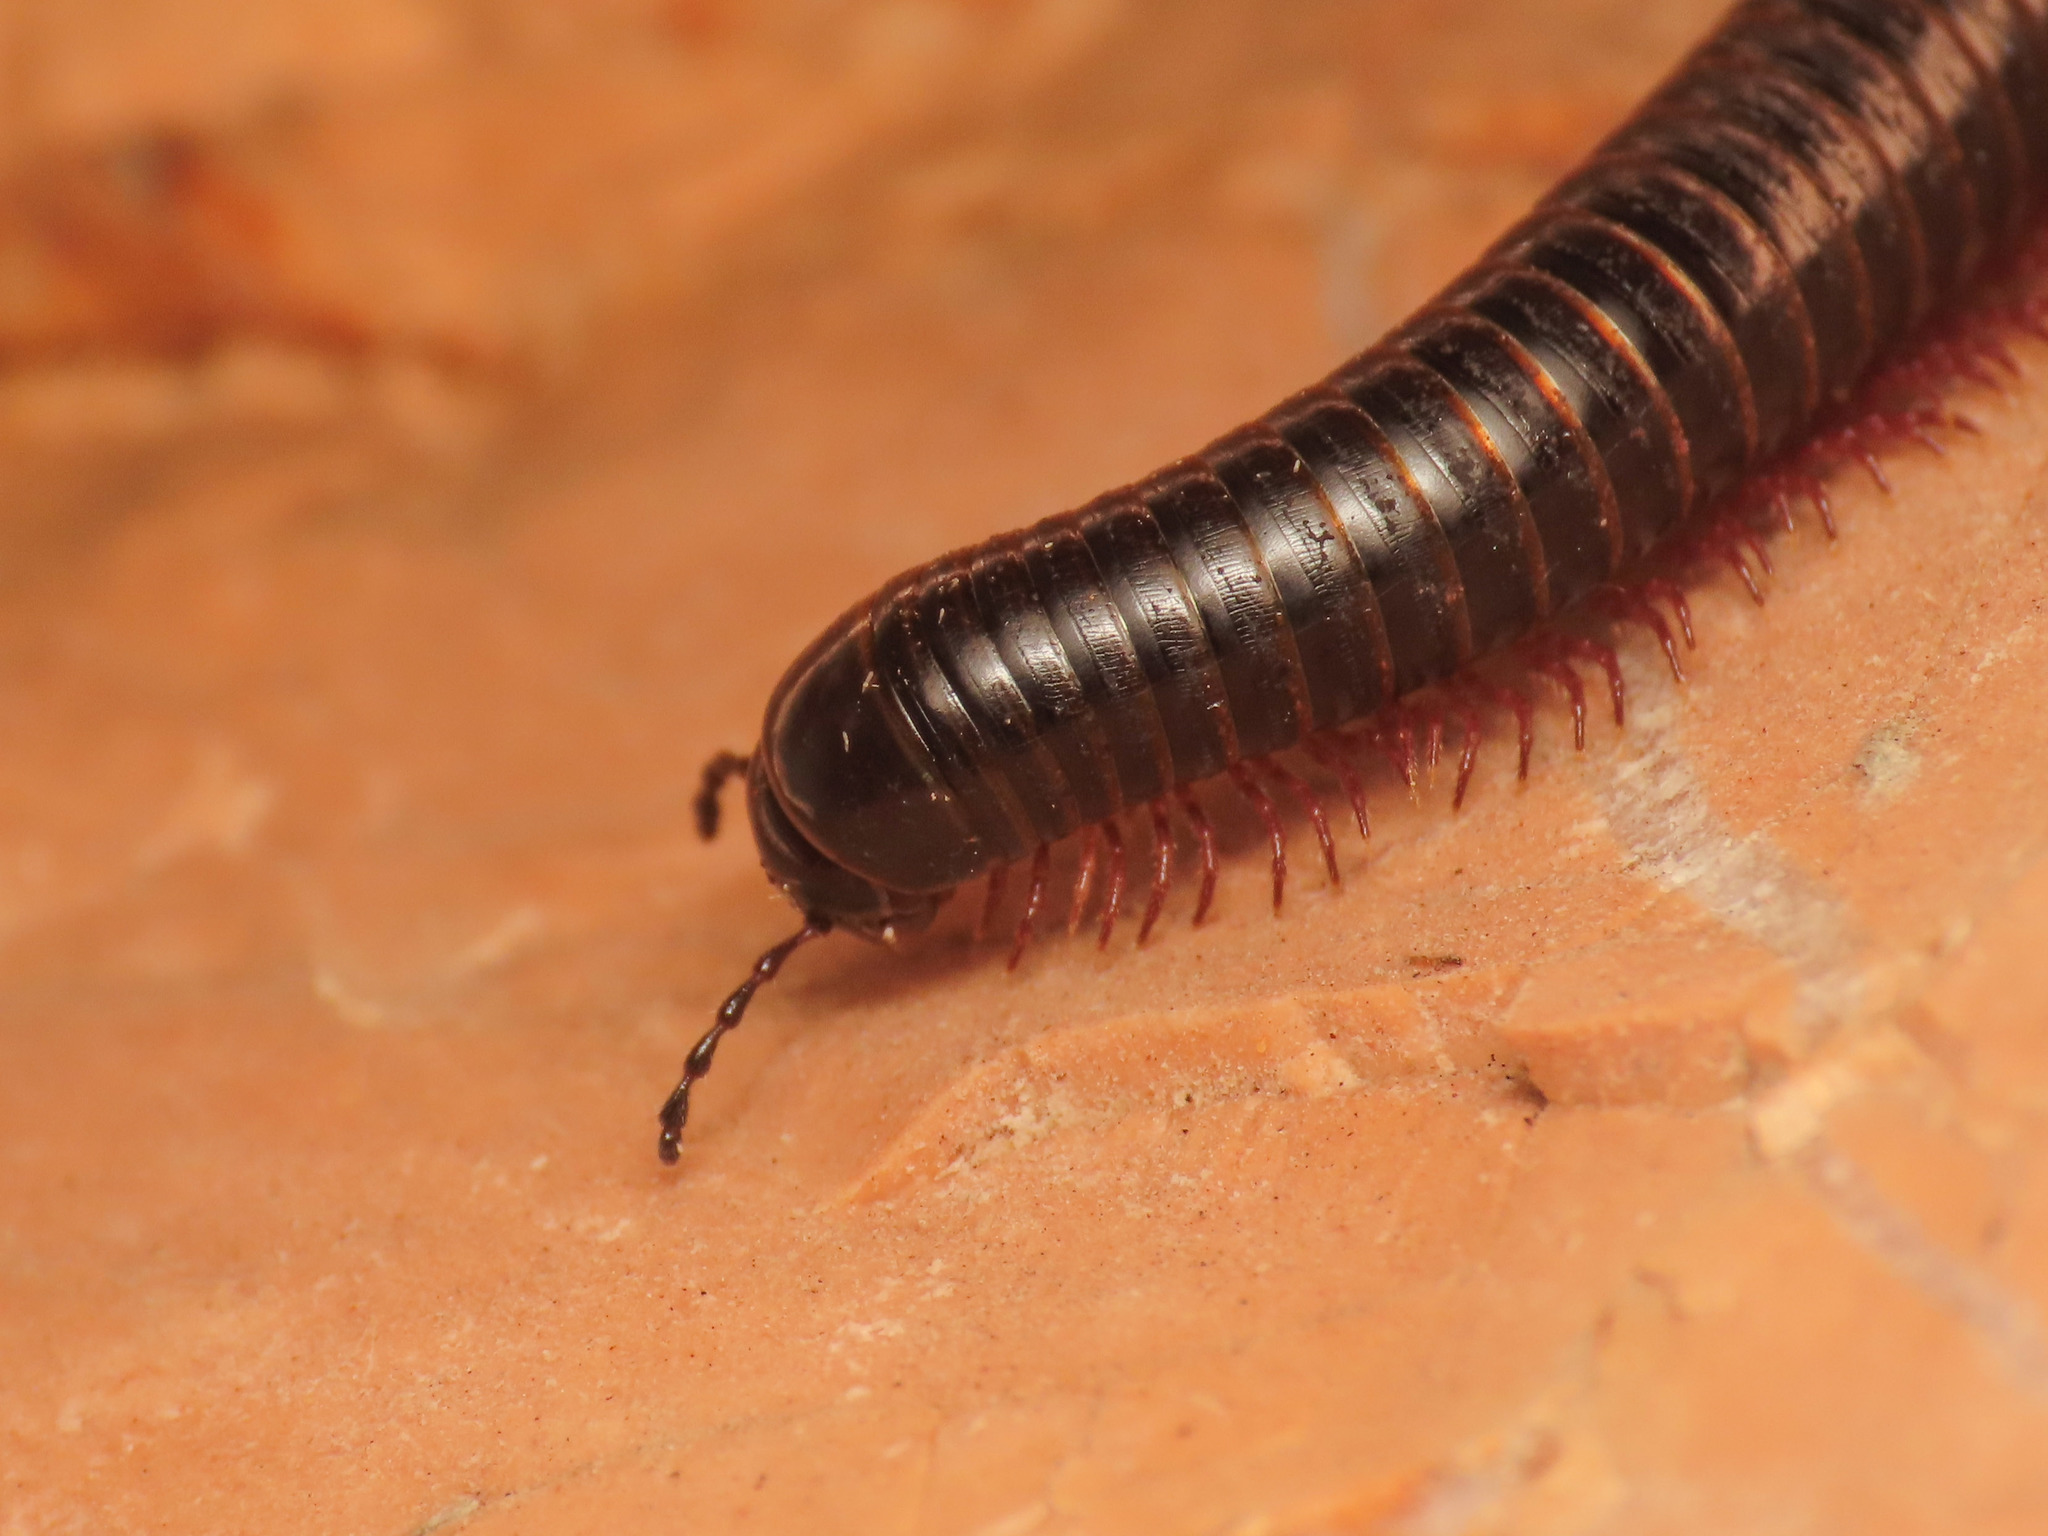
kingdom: Animalia
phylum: Arthropoda
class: Diplopoda
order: Julida
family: Julidae
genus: Pachyiulus
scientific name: Pachyiulus oenologus
